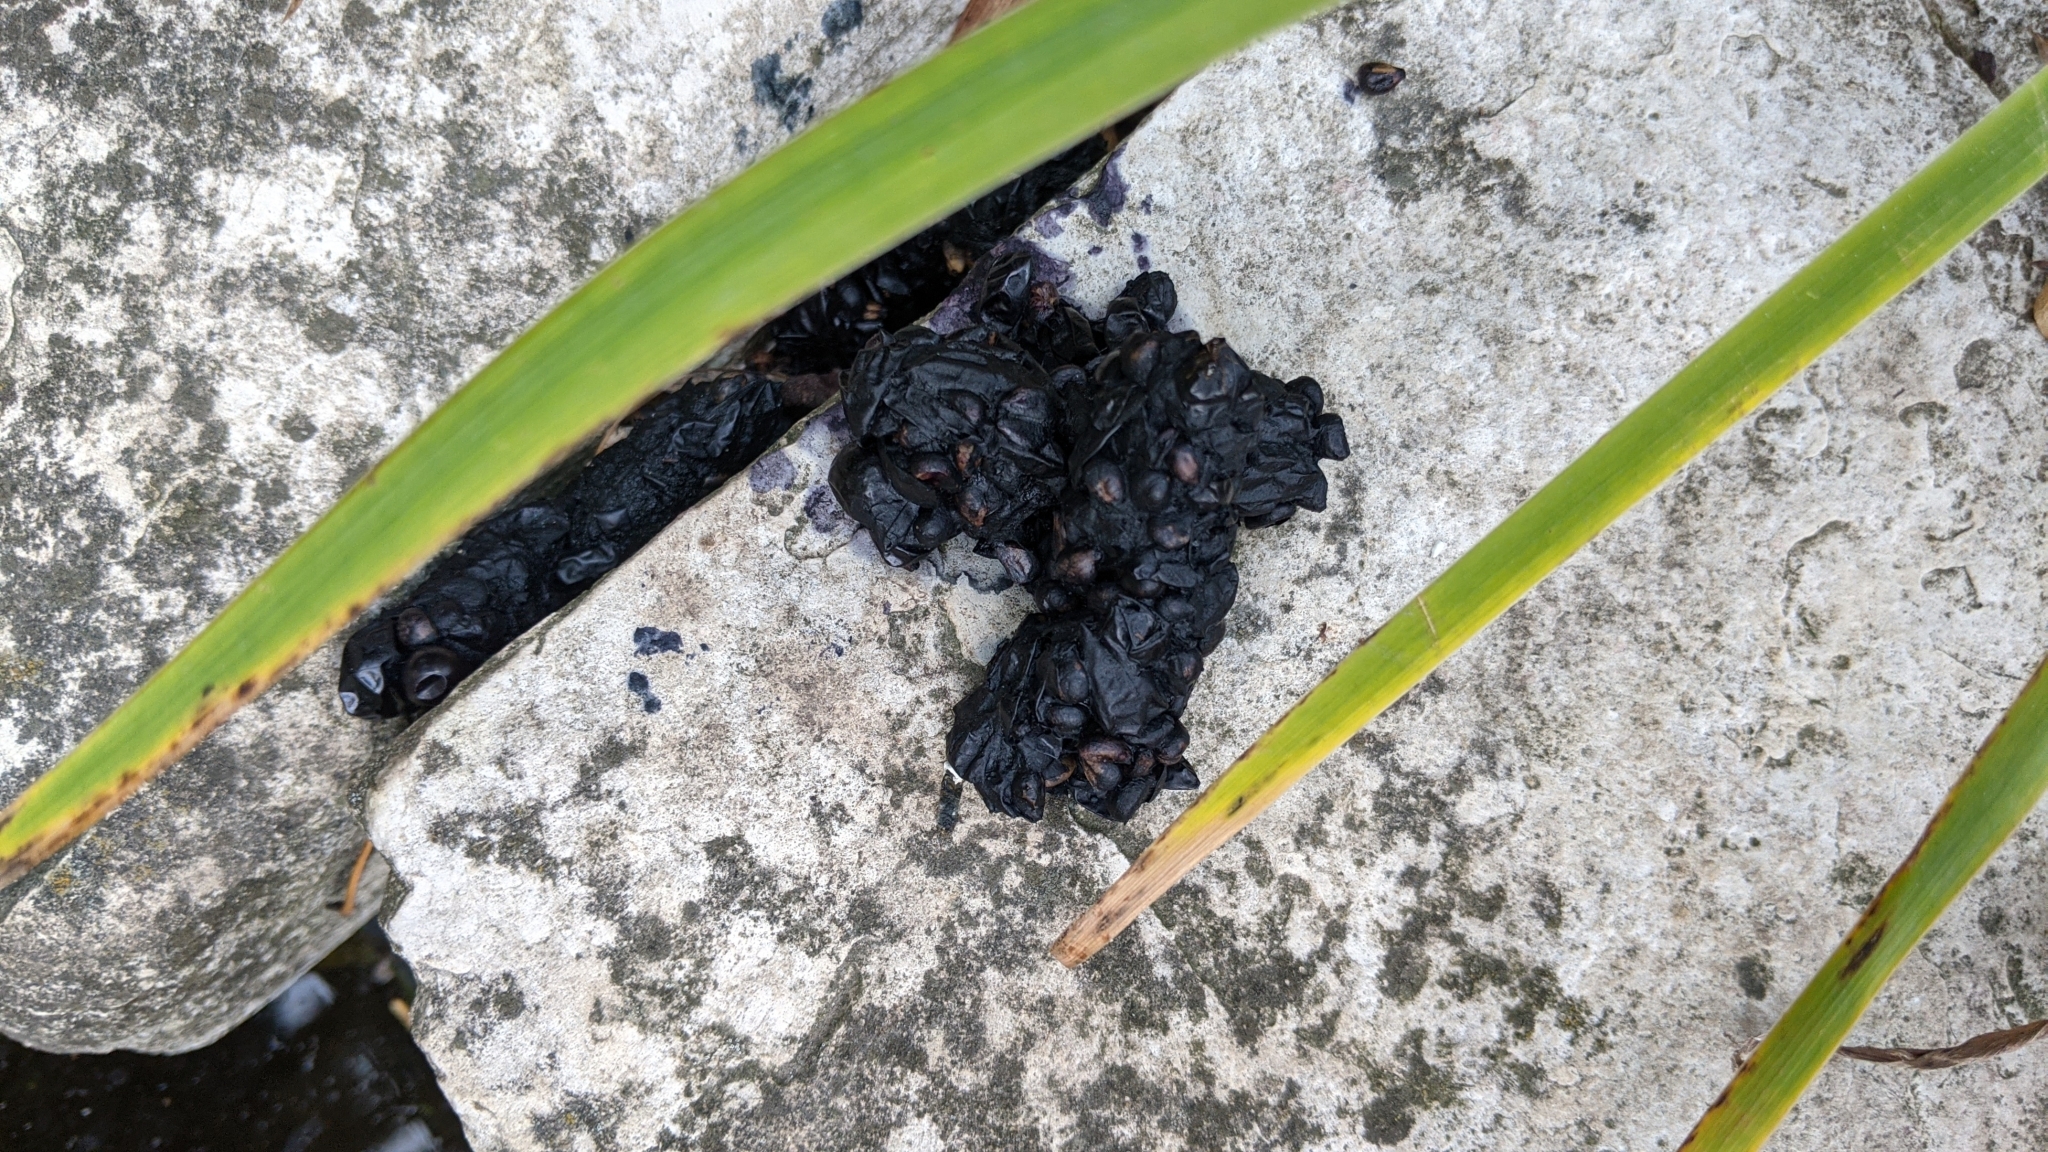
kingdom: Animalia
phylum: Chordata
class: Mammalia
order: Carnivora
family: Procyonidae
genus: Procyon
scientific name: Procyon lotor
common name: Raccoon
